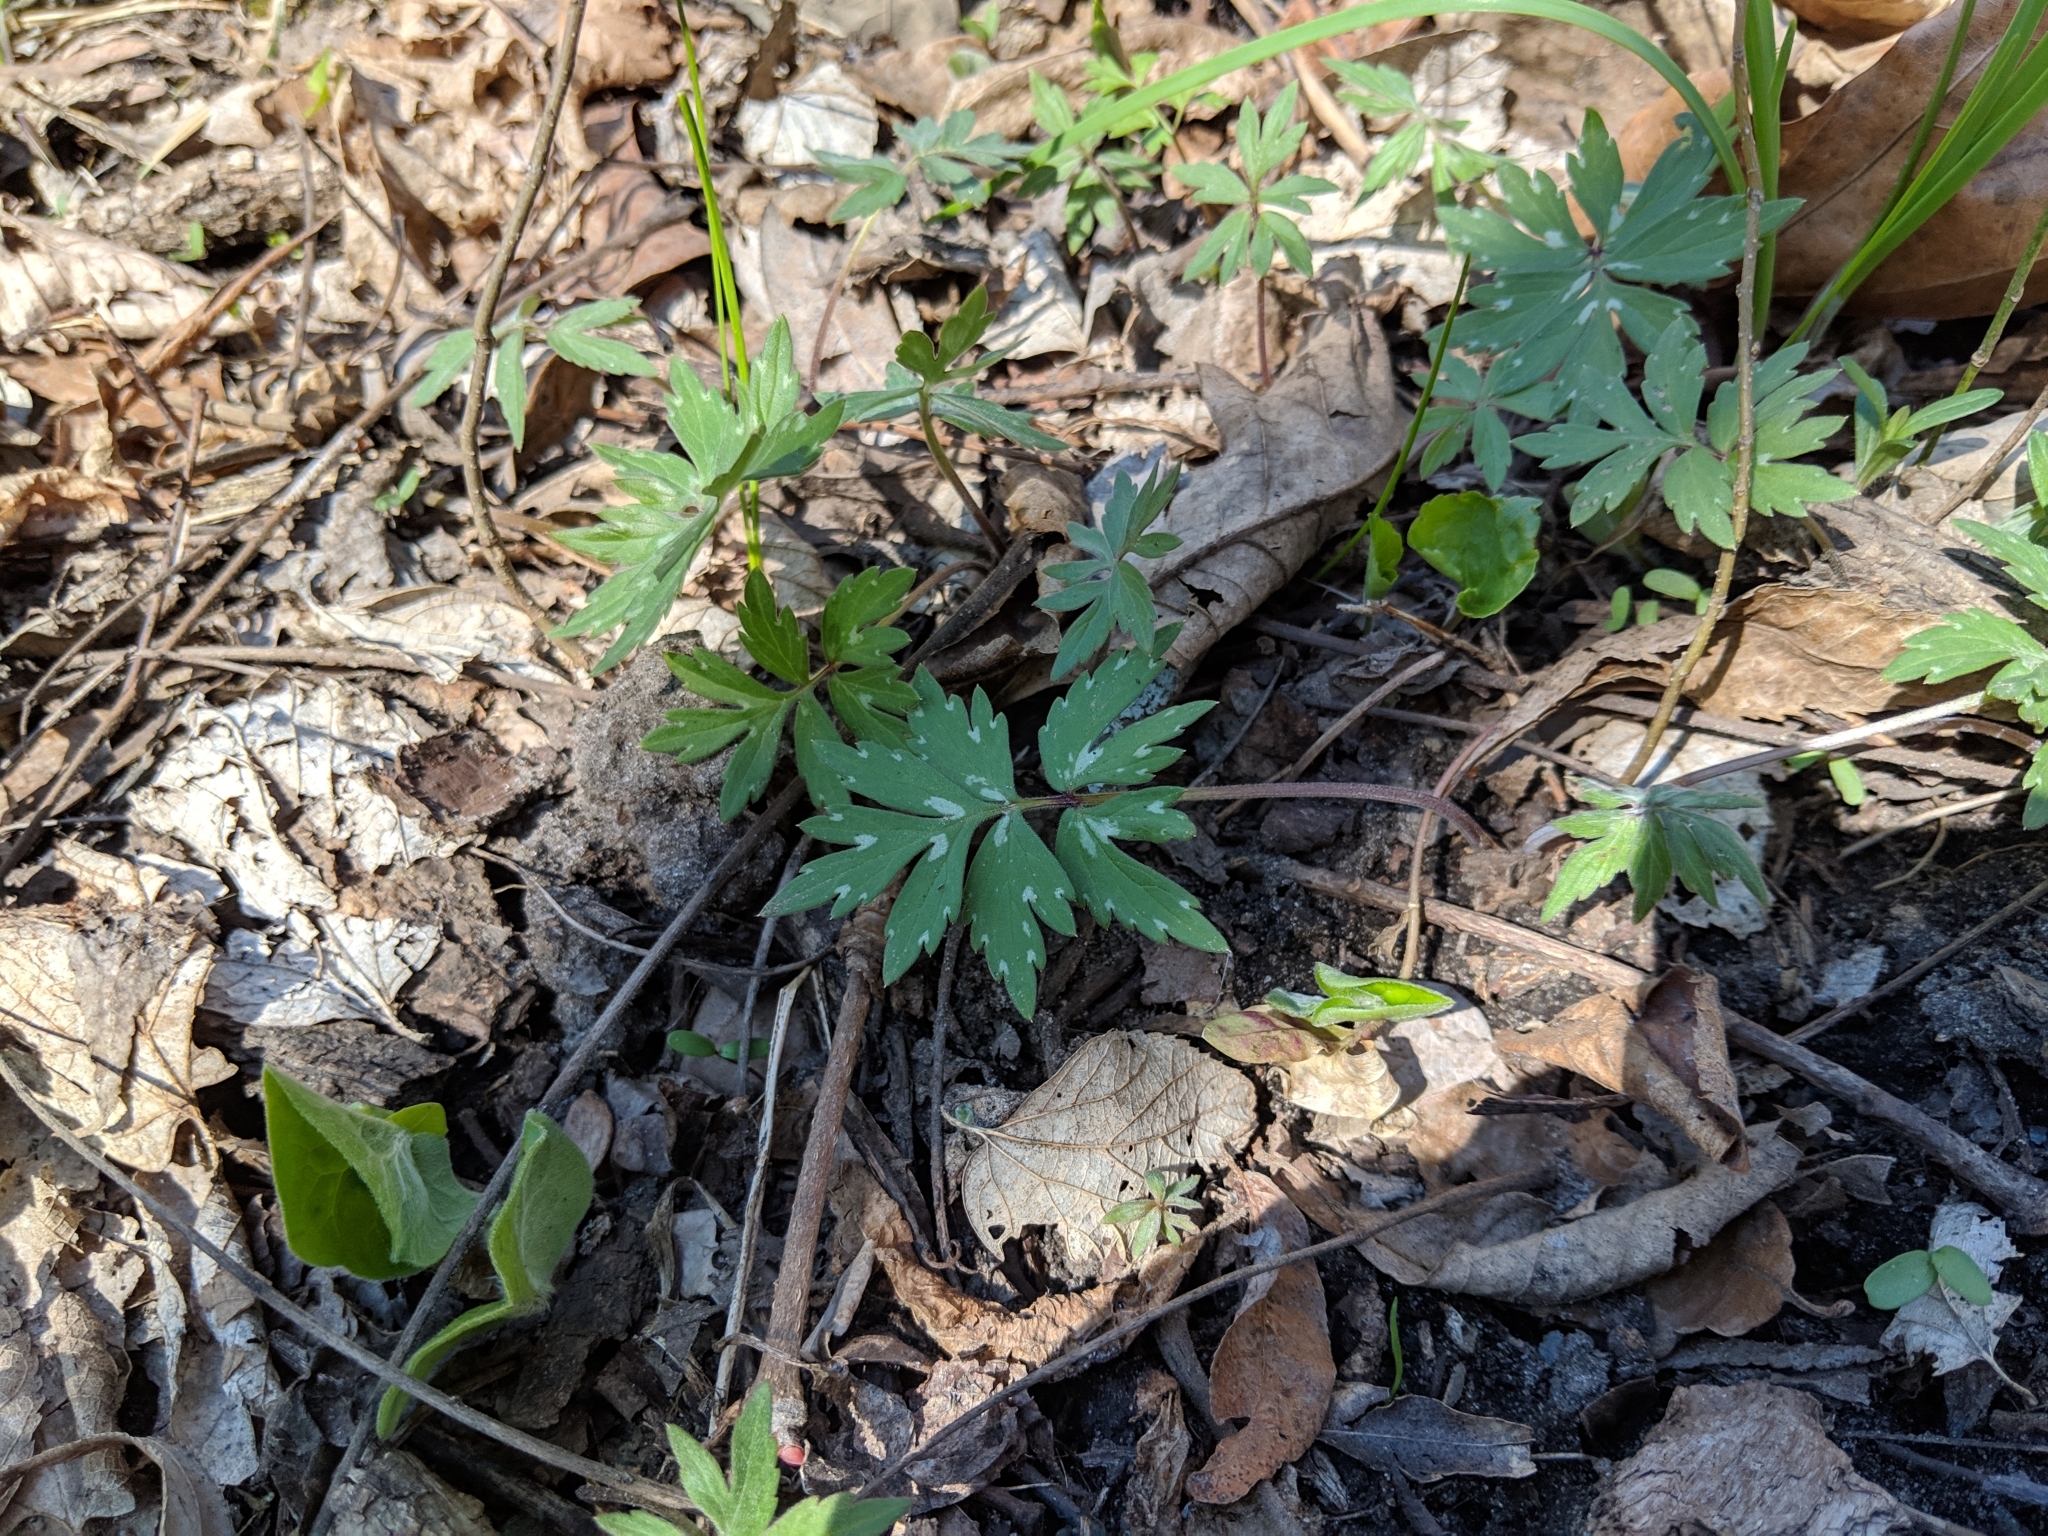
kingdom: Plantae
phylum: Tracheophyta
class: Magnoliopsida
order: Boraginales
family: Hydrophyllaceae
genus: Hydrophyllum
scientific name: Hydrophyllum virginianum
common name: Virginia waterleaf
